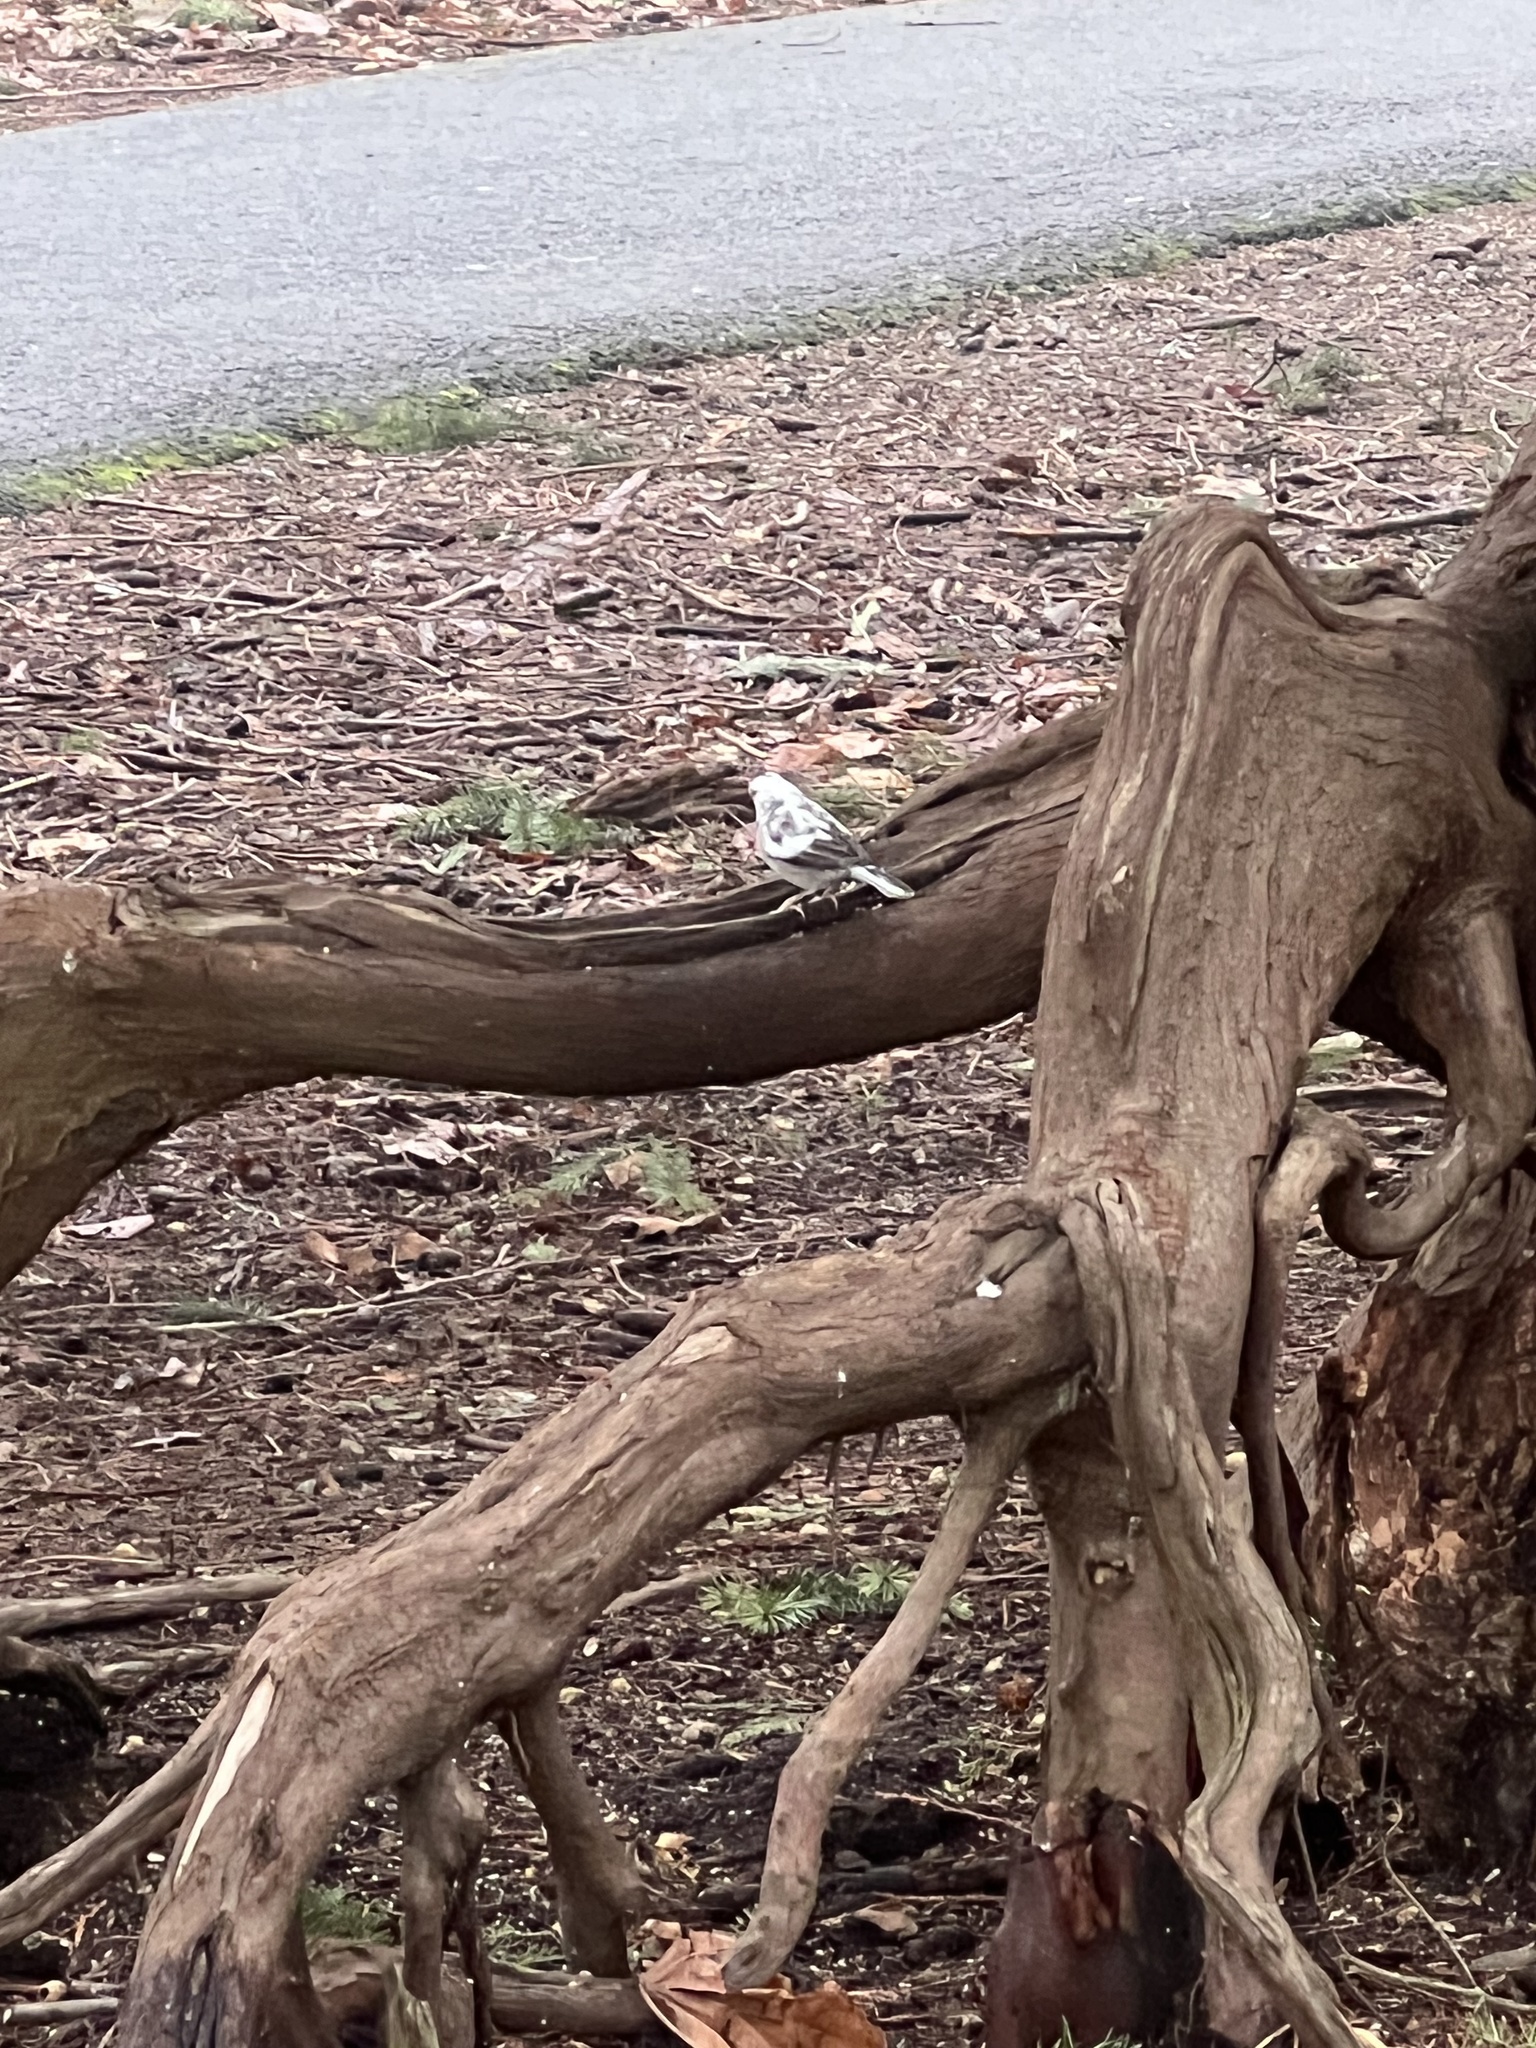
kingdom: Animalia
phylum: Chordata
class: Aves
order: Passeriformes
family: Passerellidae
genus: Junco
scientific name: Junco hyemalis
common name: Dark-eyed junco
